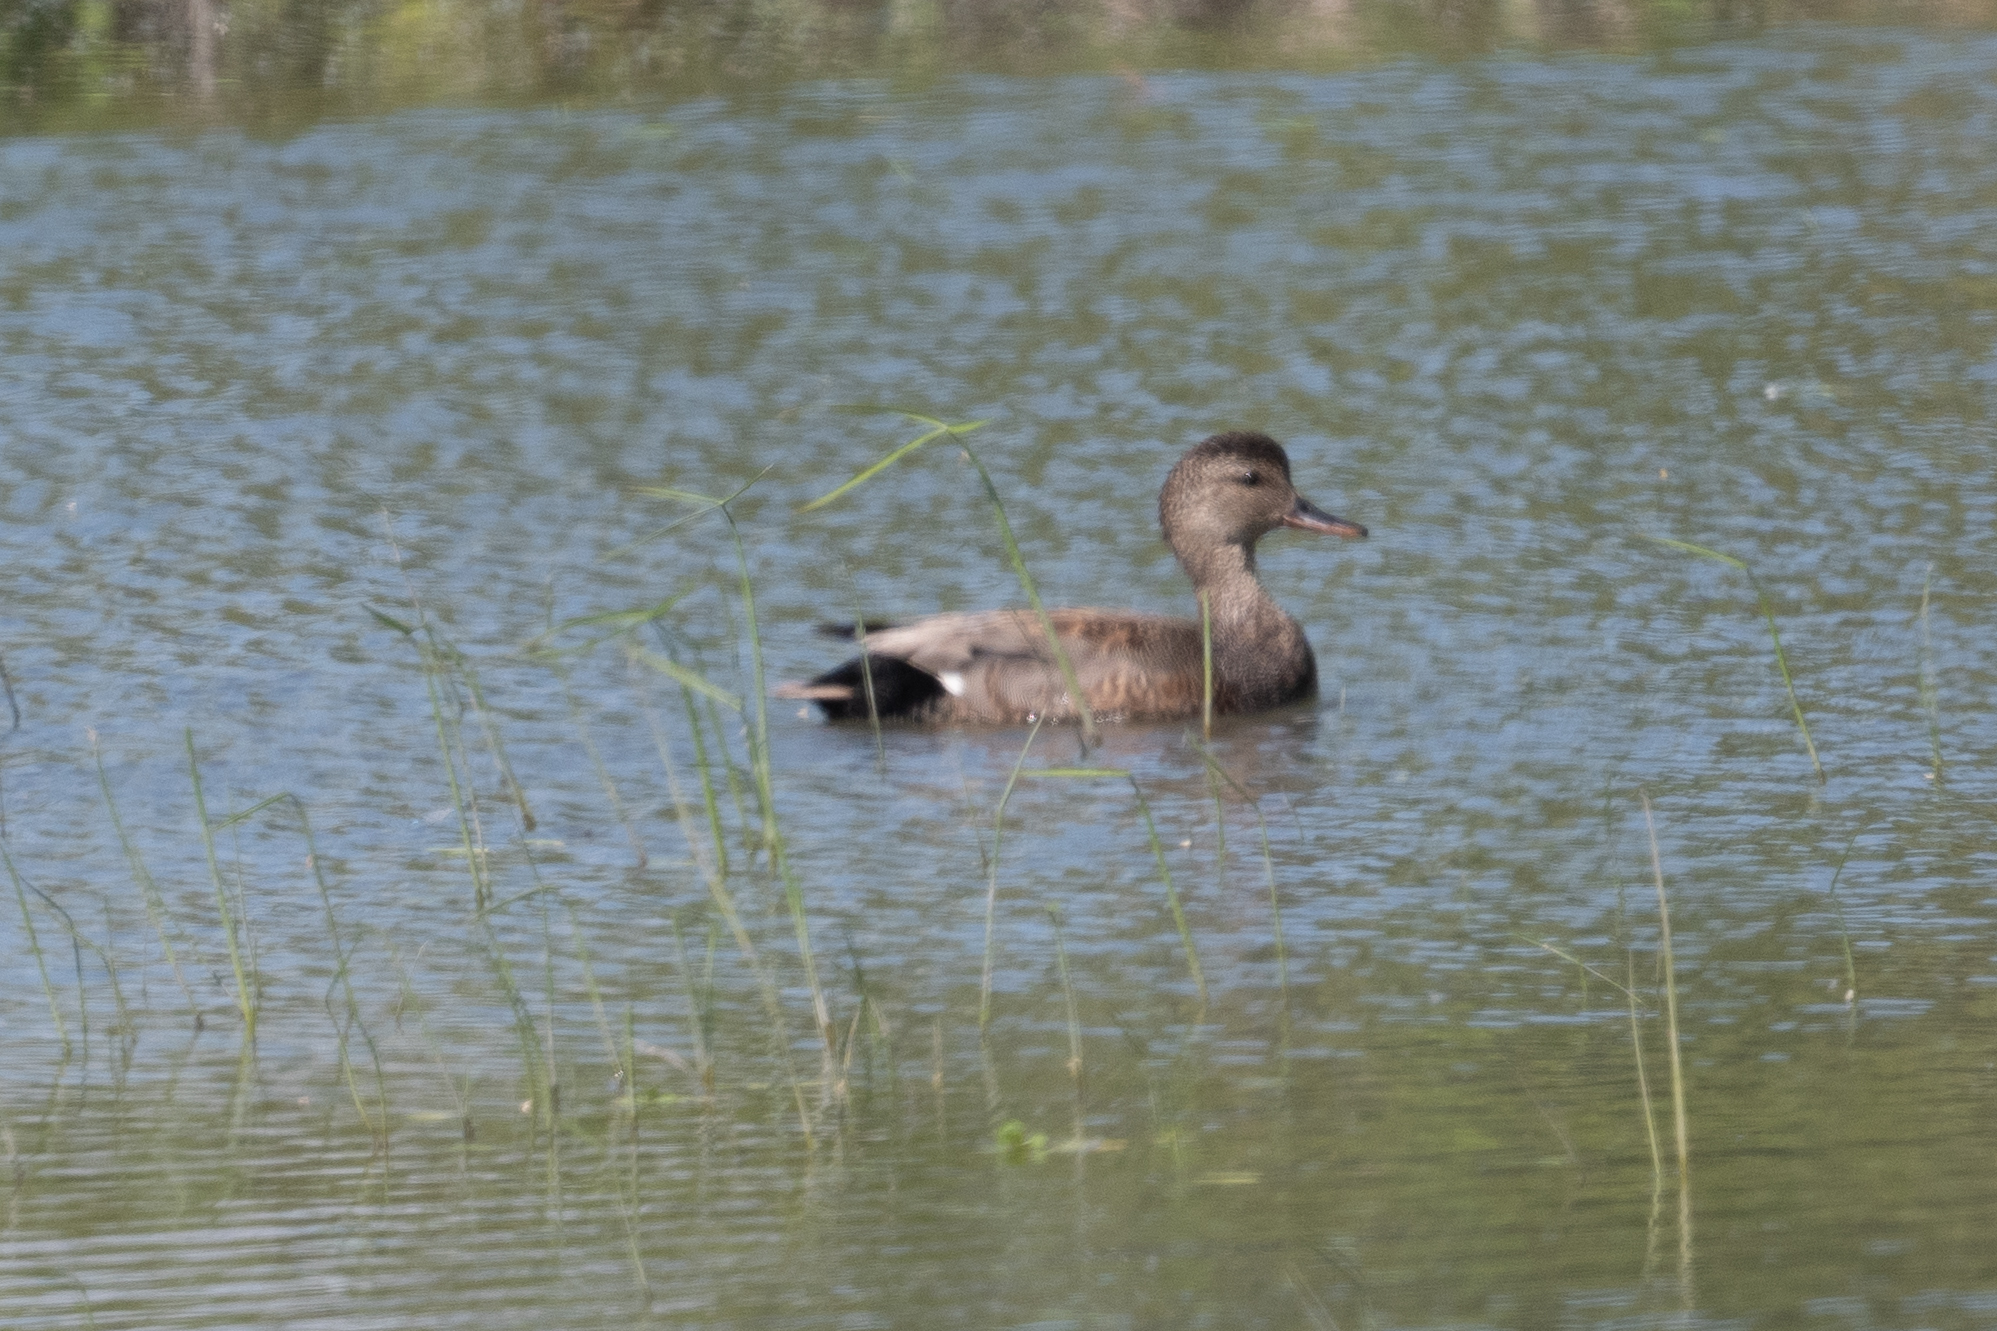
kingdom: Animalia
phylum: Chordata
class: Aves
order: Anseriformes
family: Anatidae
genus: Mareca
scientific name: Mareca strepera
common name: Gadwall
